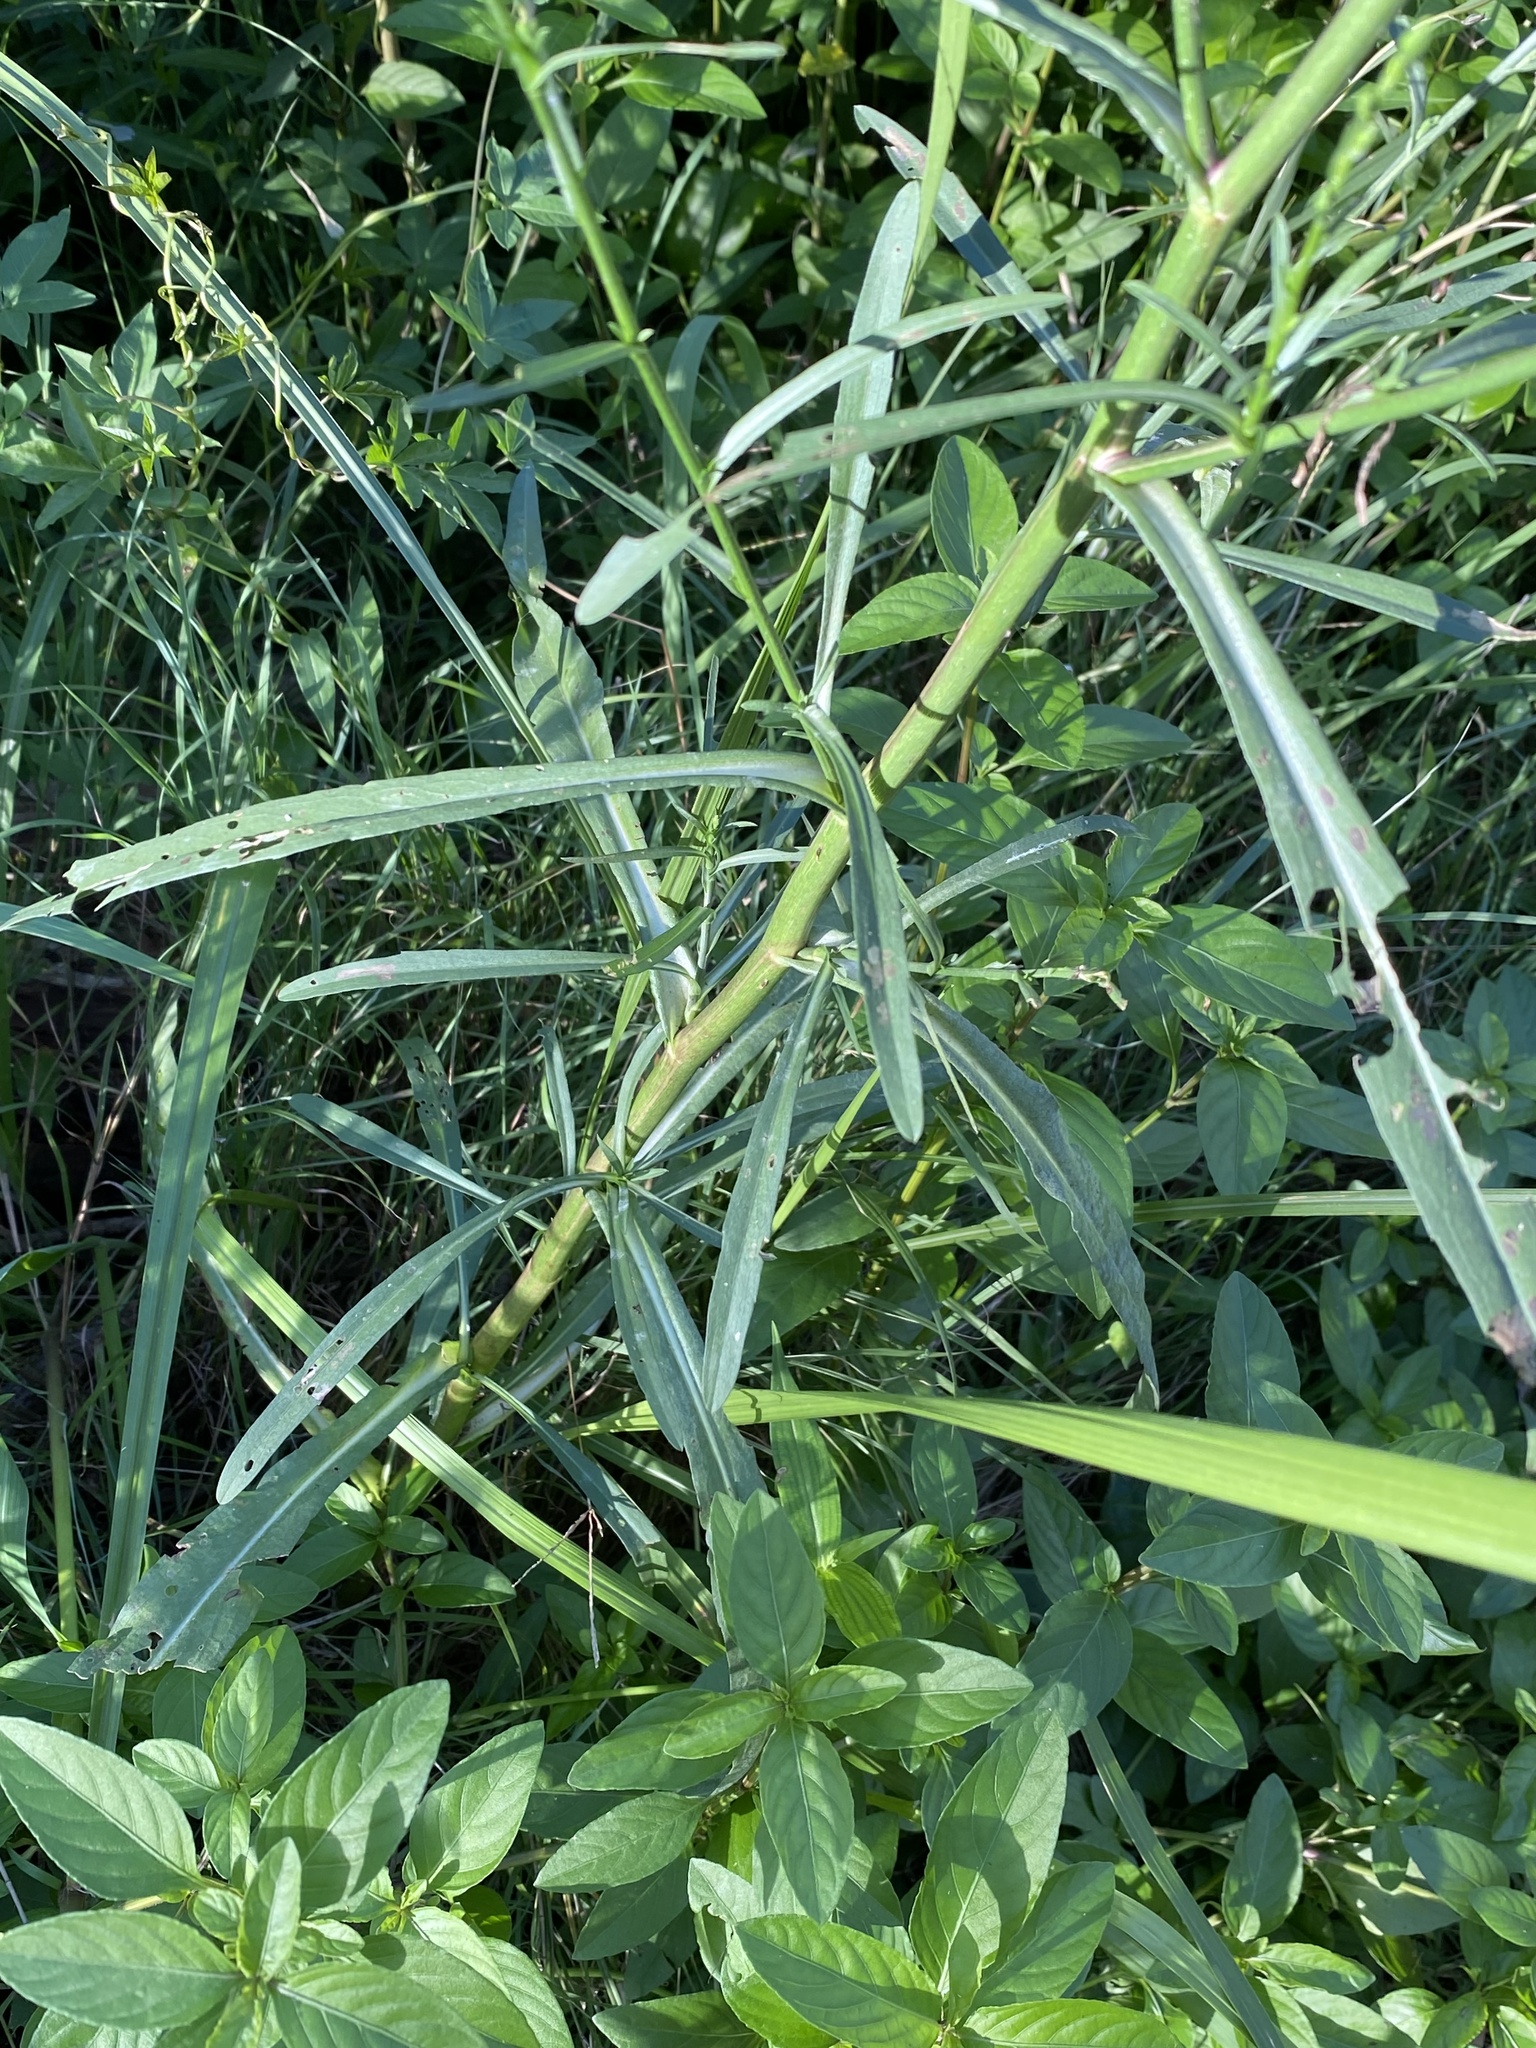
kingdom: Plantae
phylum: Tracheophyta
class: Magnoliopsida
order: Asterales
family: Asteraceae
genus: Symphyotrichum
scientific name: Symphyotrichum subulatum
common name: Annual saltmarsh aster
